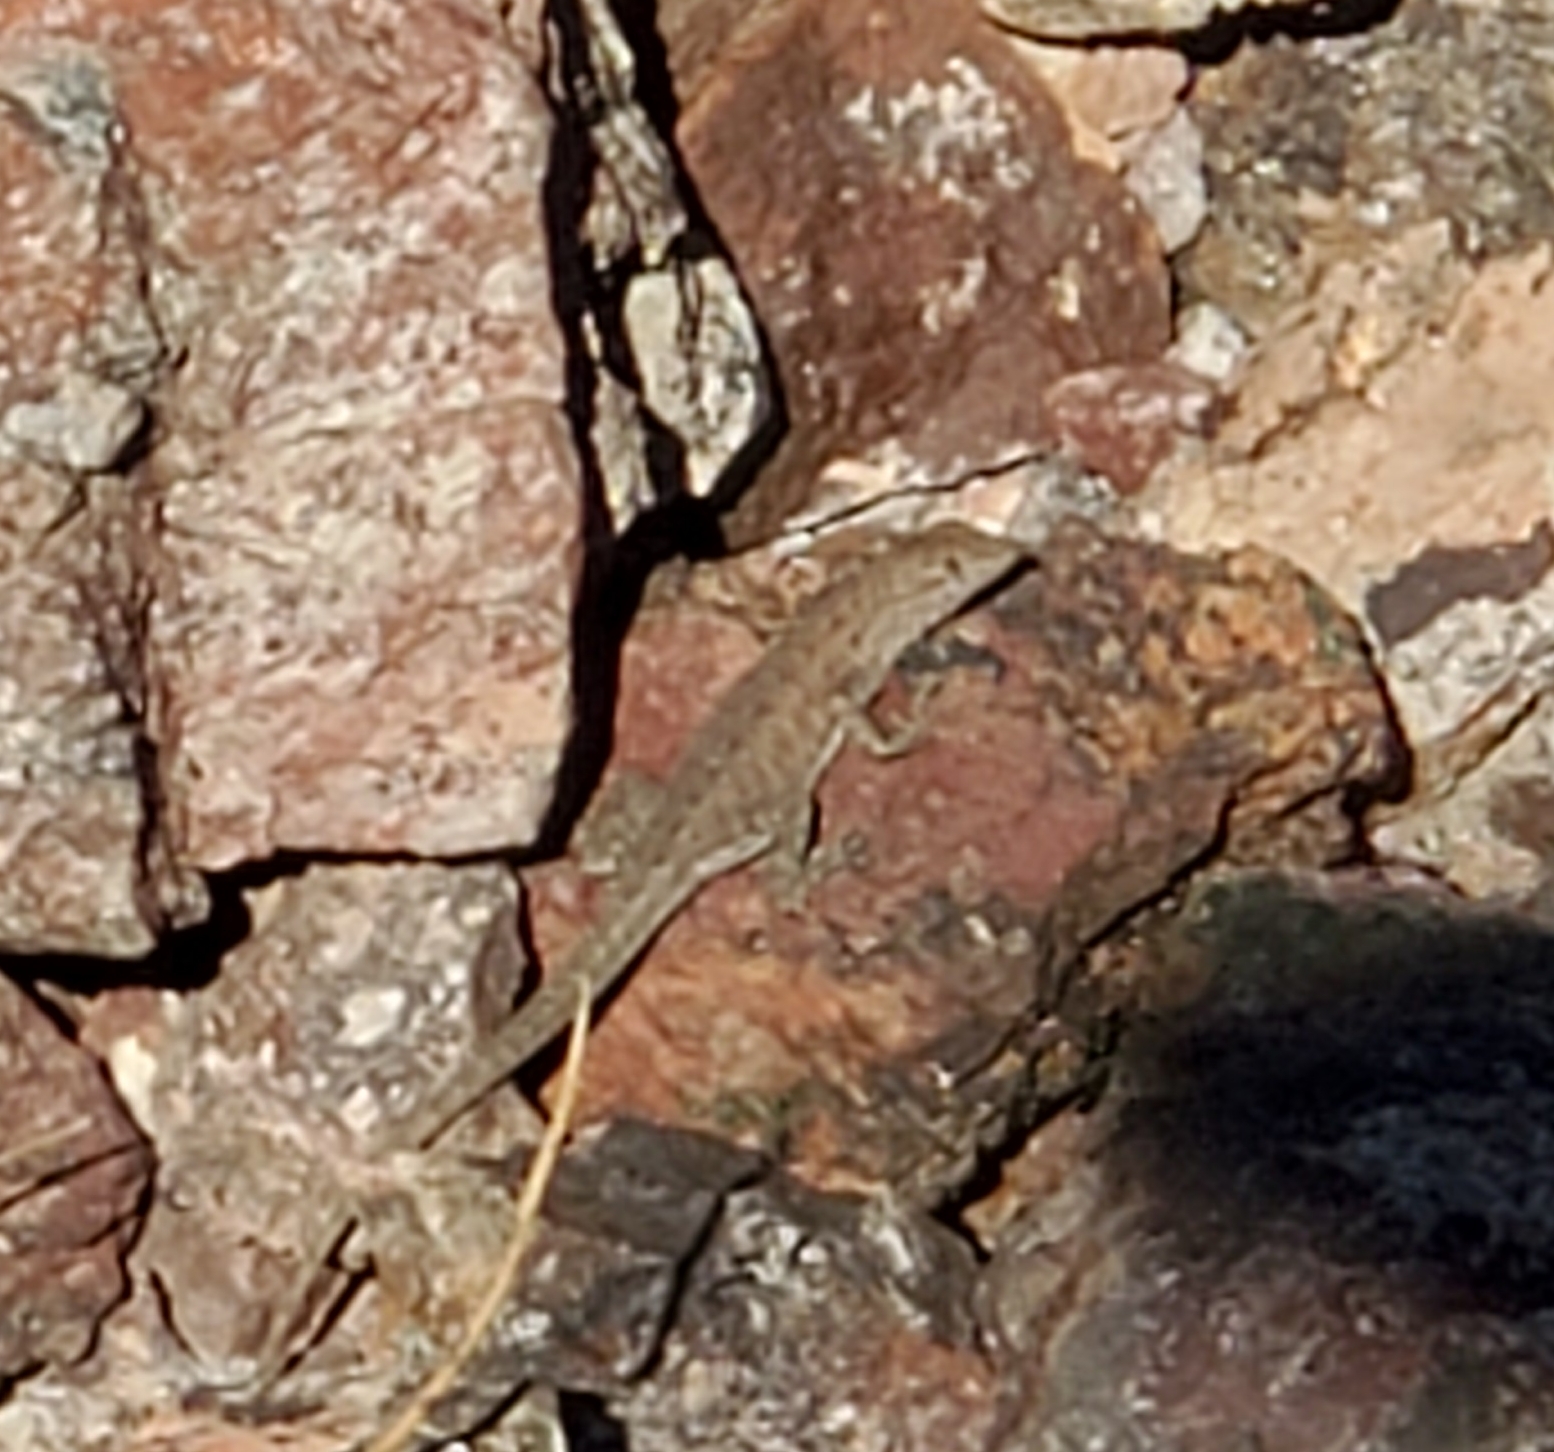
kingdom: Animalia
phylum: Chordata
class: Squamata
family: Phrynosomatidae
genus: Uta
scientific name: Uta stansburiana
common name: Side-blotched lizard
